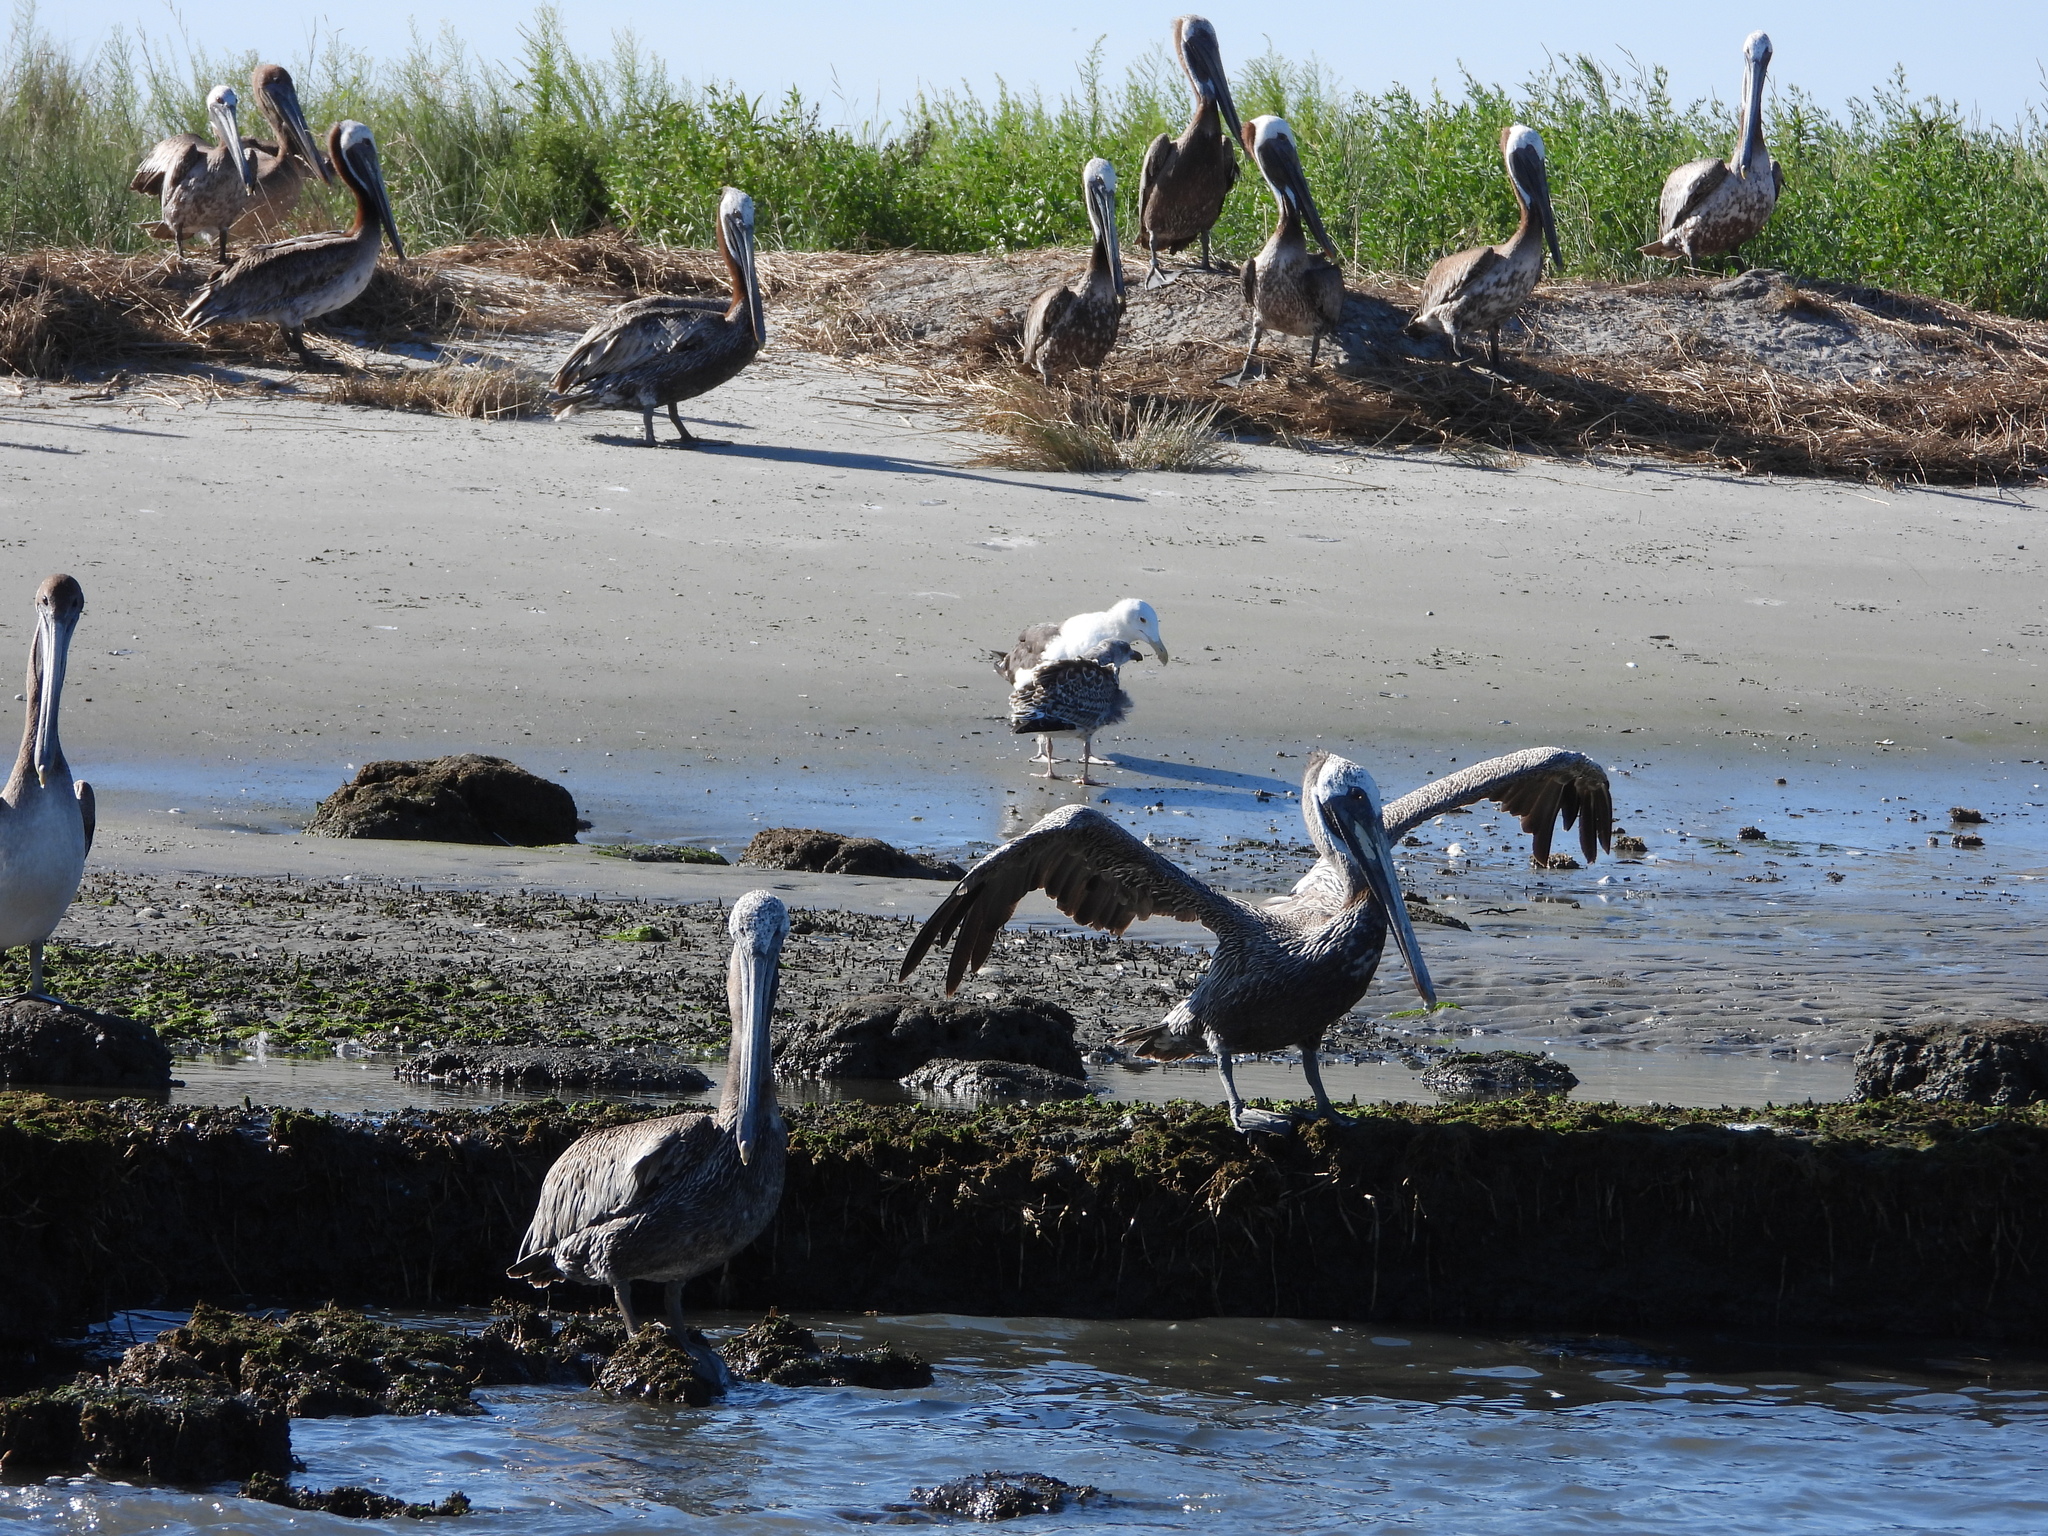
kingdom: Animalia
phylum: Chordata
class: Aves
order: Pelecaniformes
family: Pelecanidae
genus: Pelecanus
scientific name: Pelecanus occidentalis
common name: Brown pelican
